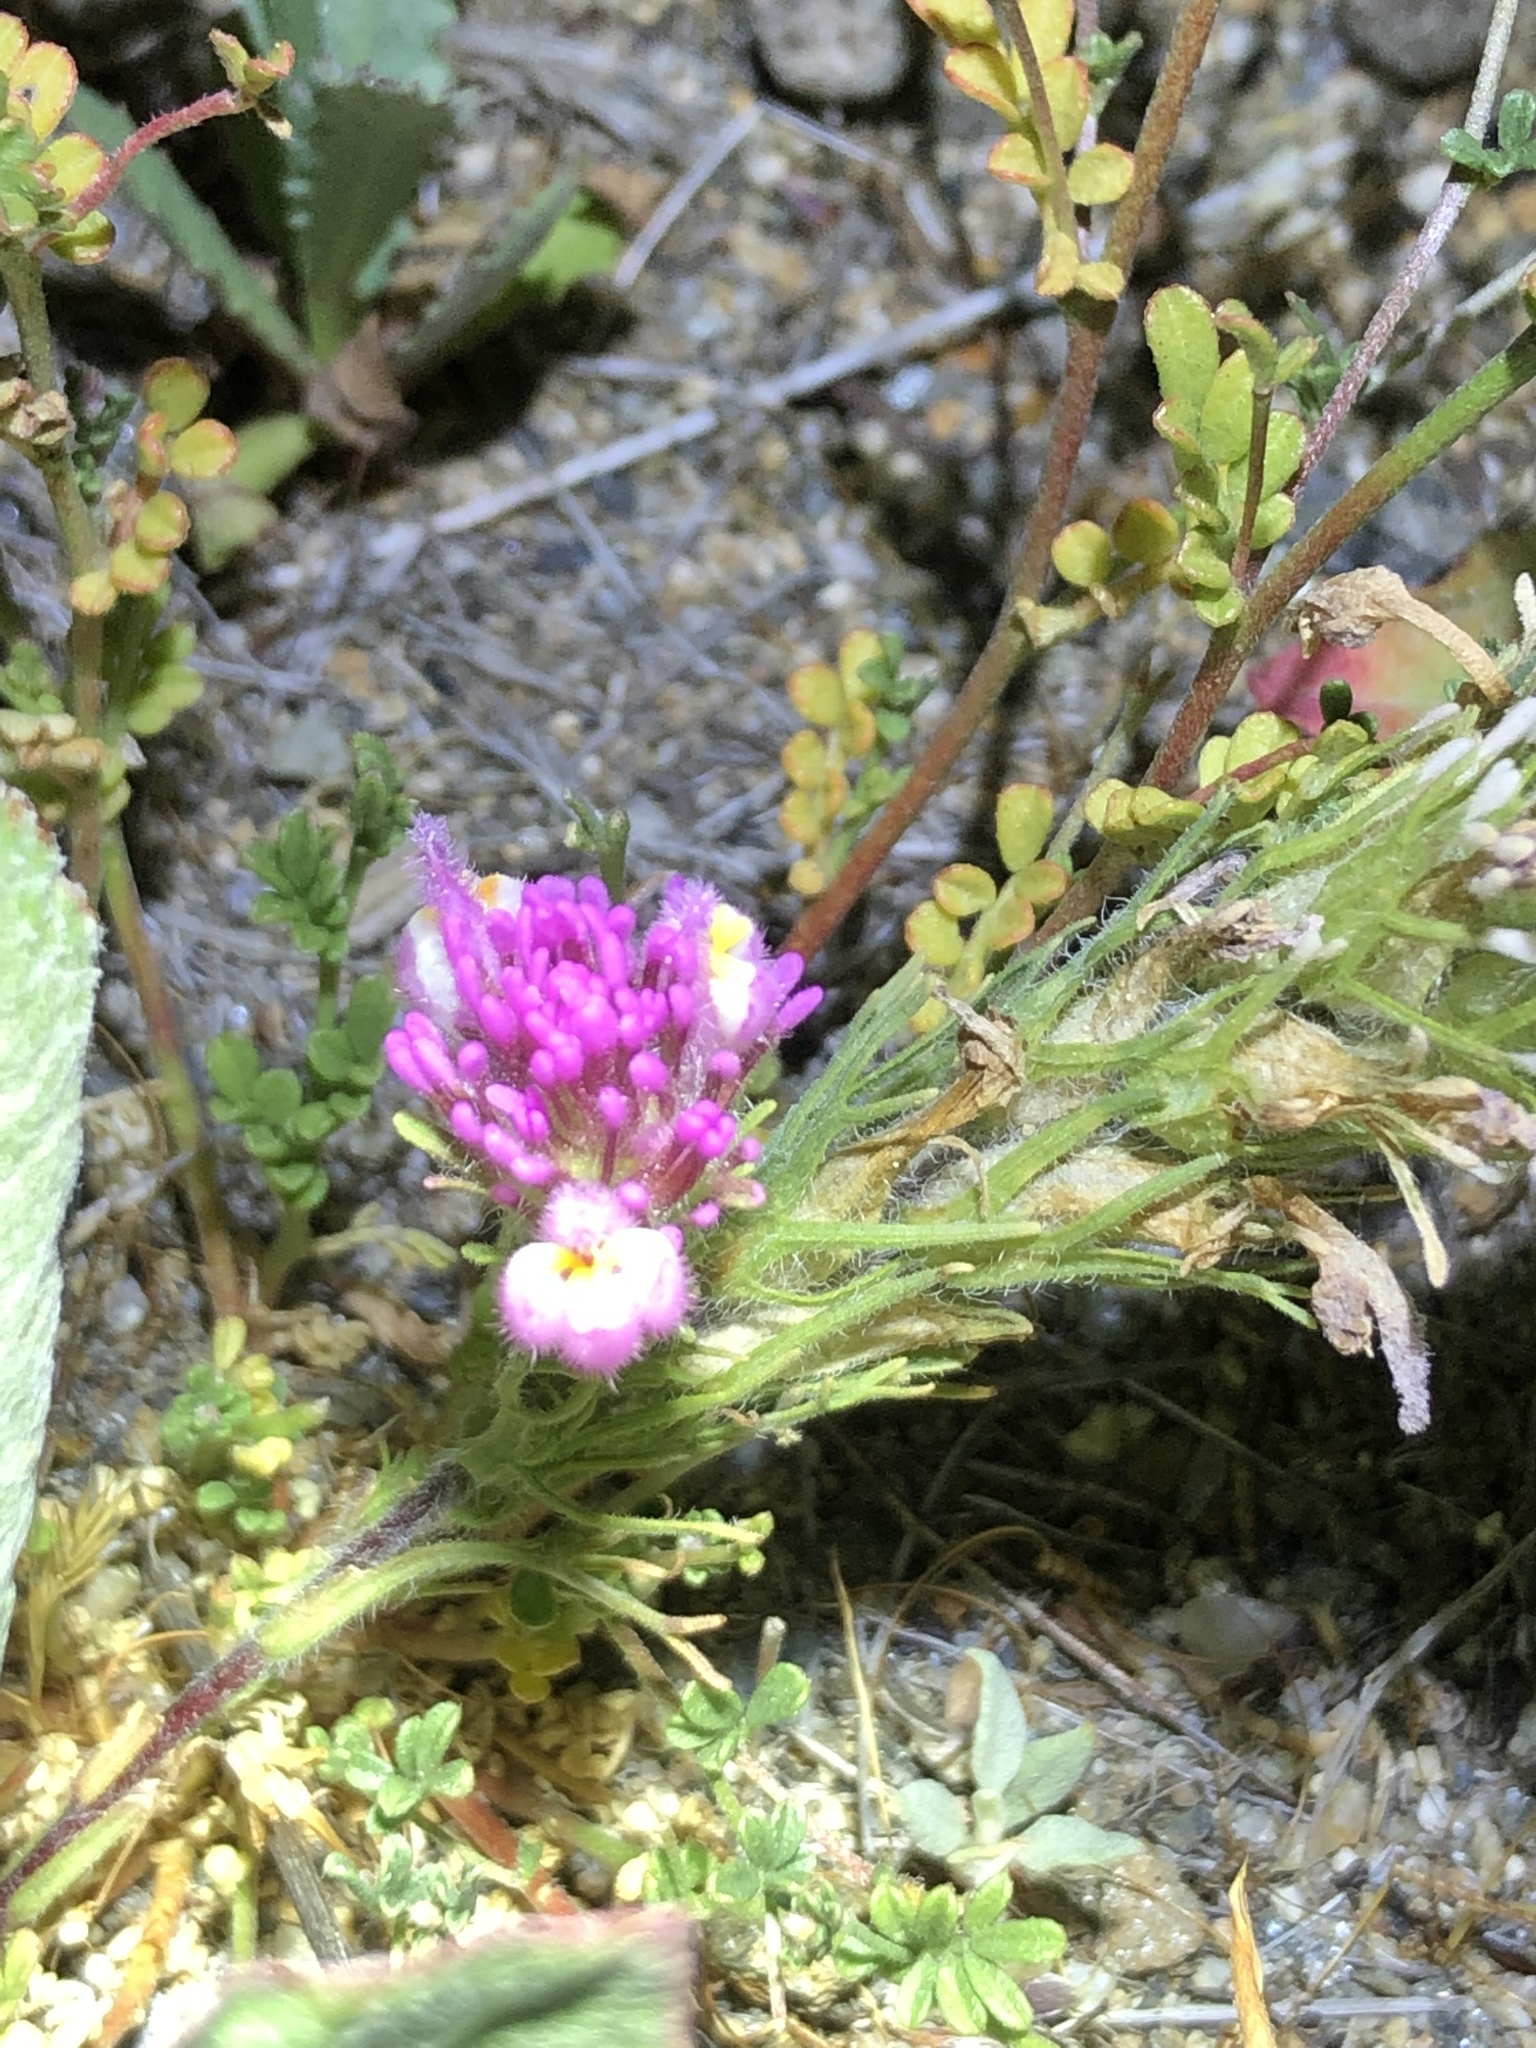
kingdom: Plantae
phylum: Tracheophyta
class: Magnoliopsida
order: Lamiales
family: Orobanchaceae
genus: Castilleja
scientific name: Castilleja exserta
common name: Purple owl-clover
